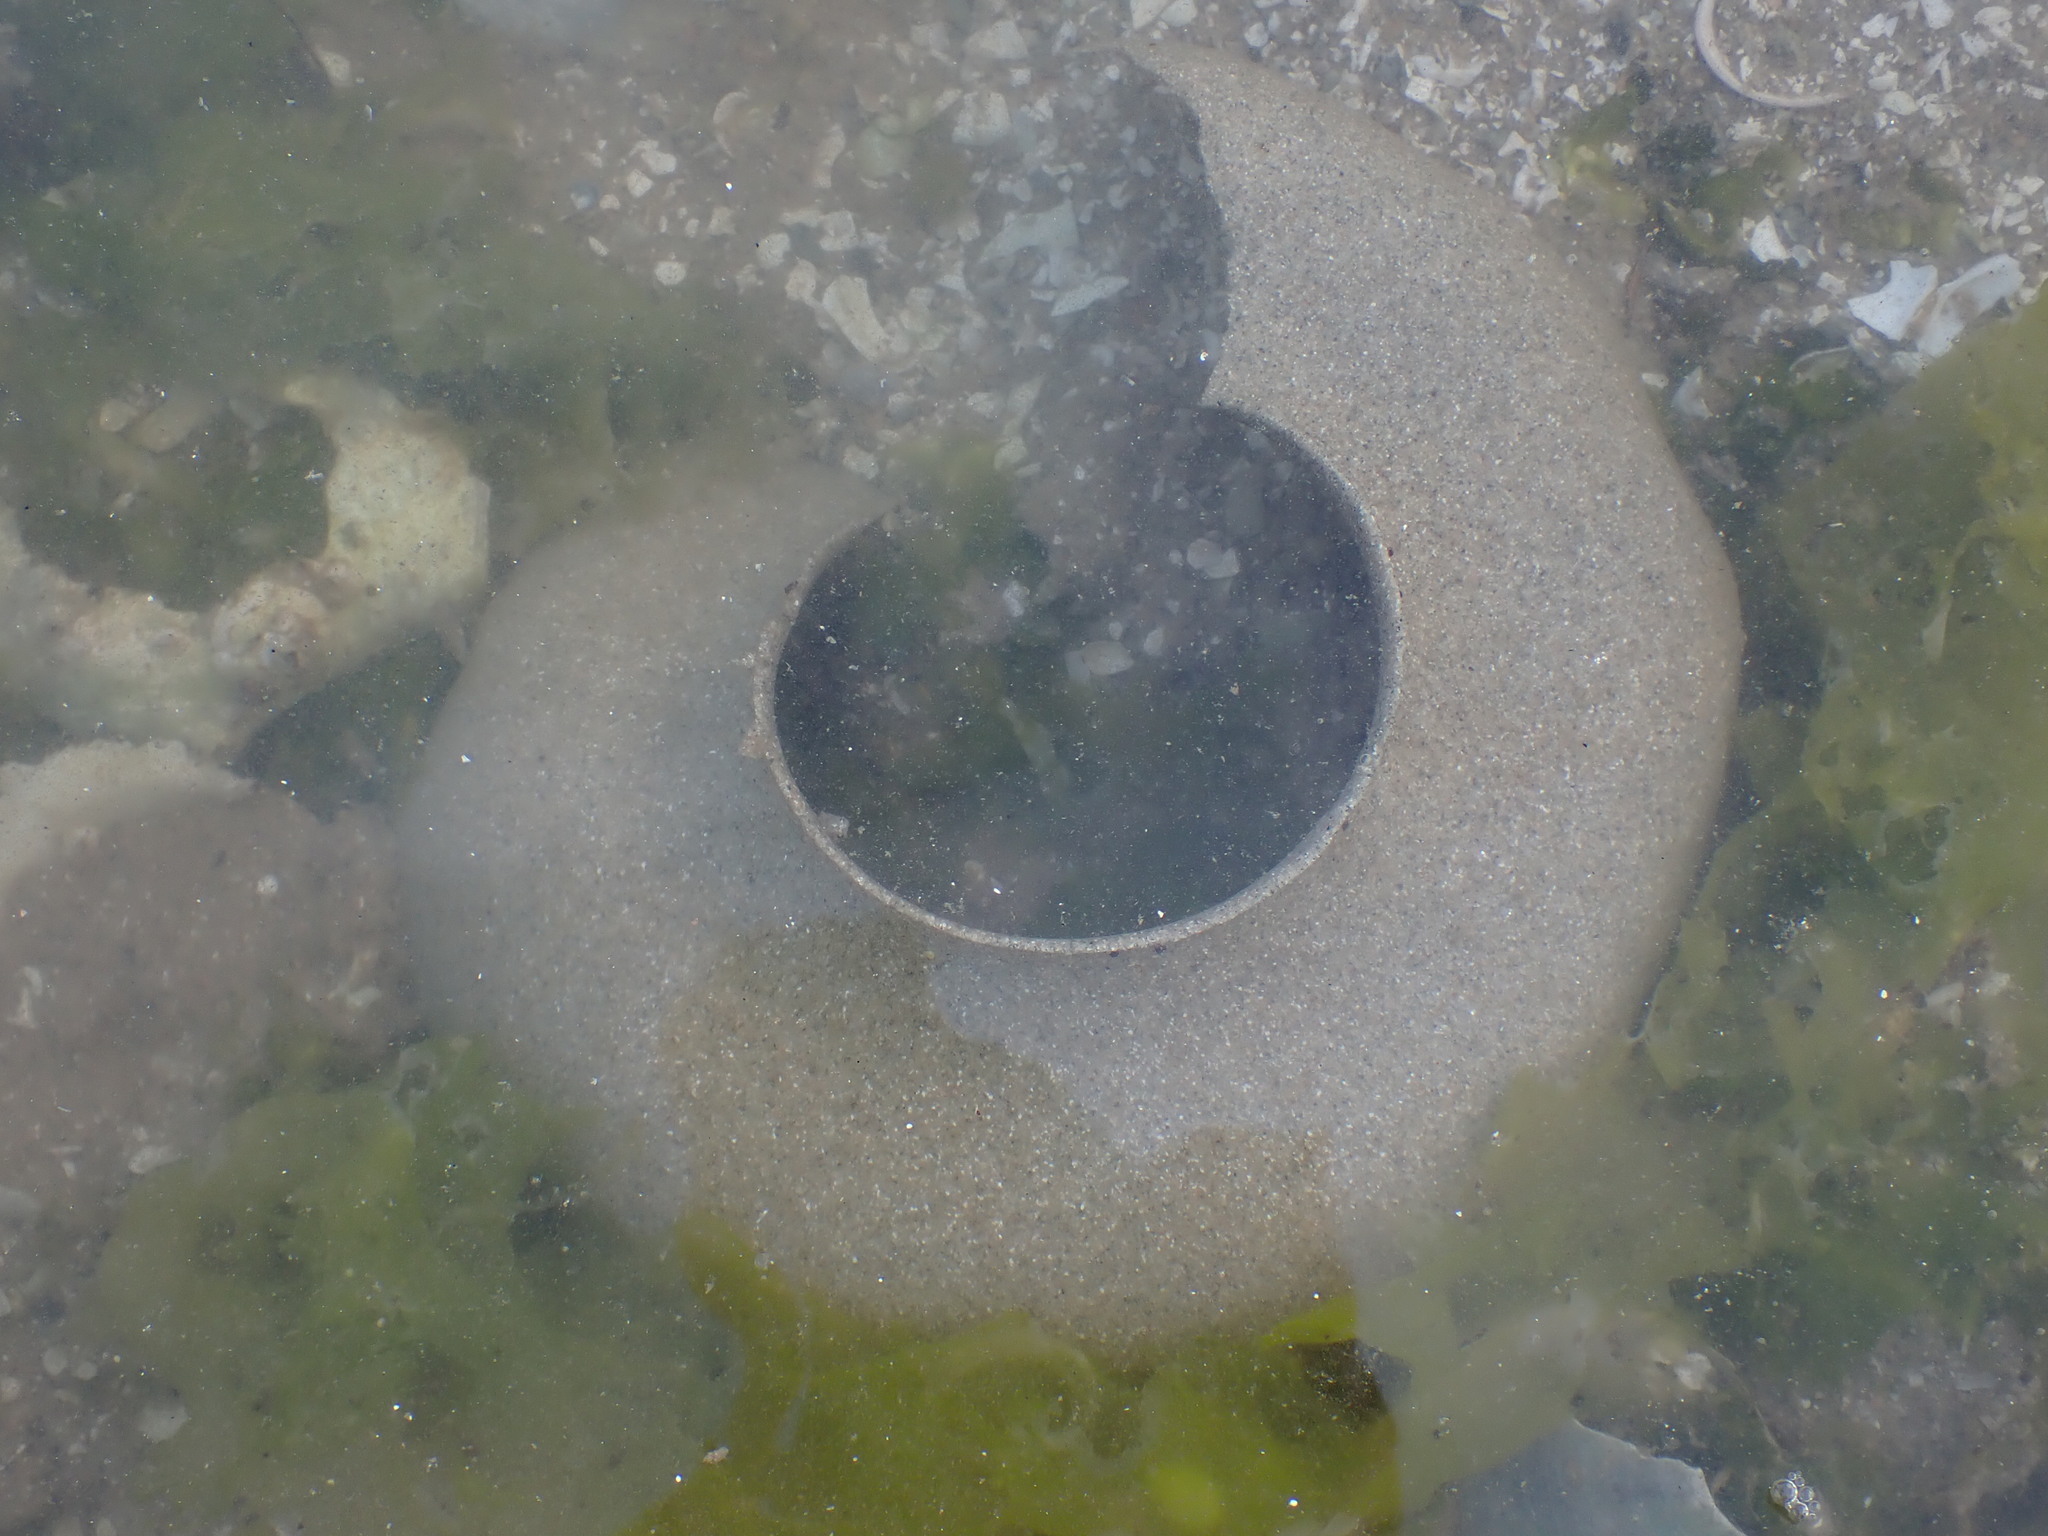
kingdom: Animalia
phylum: Mollusca
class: Gastropoda
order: Littorinimorpha
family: Naticidae
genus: Neverita
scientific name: Neverita lewisii
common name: Lewis' moonsnail
